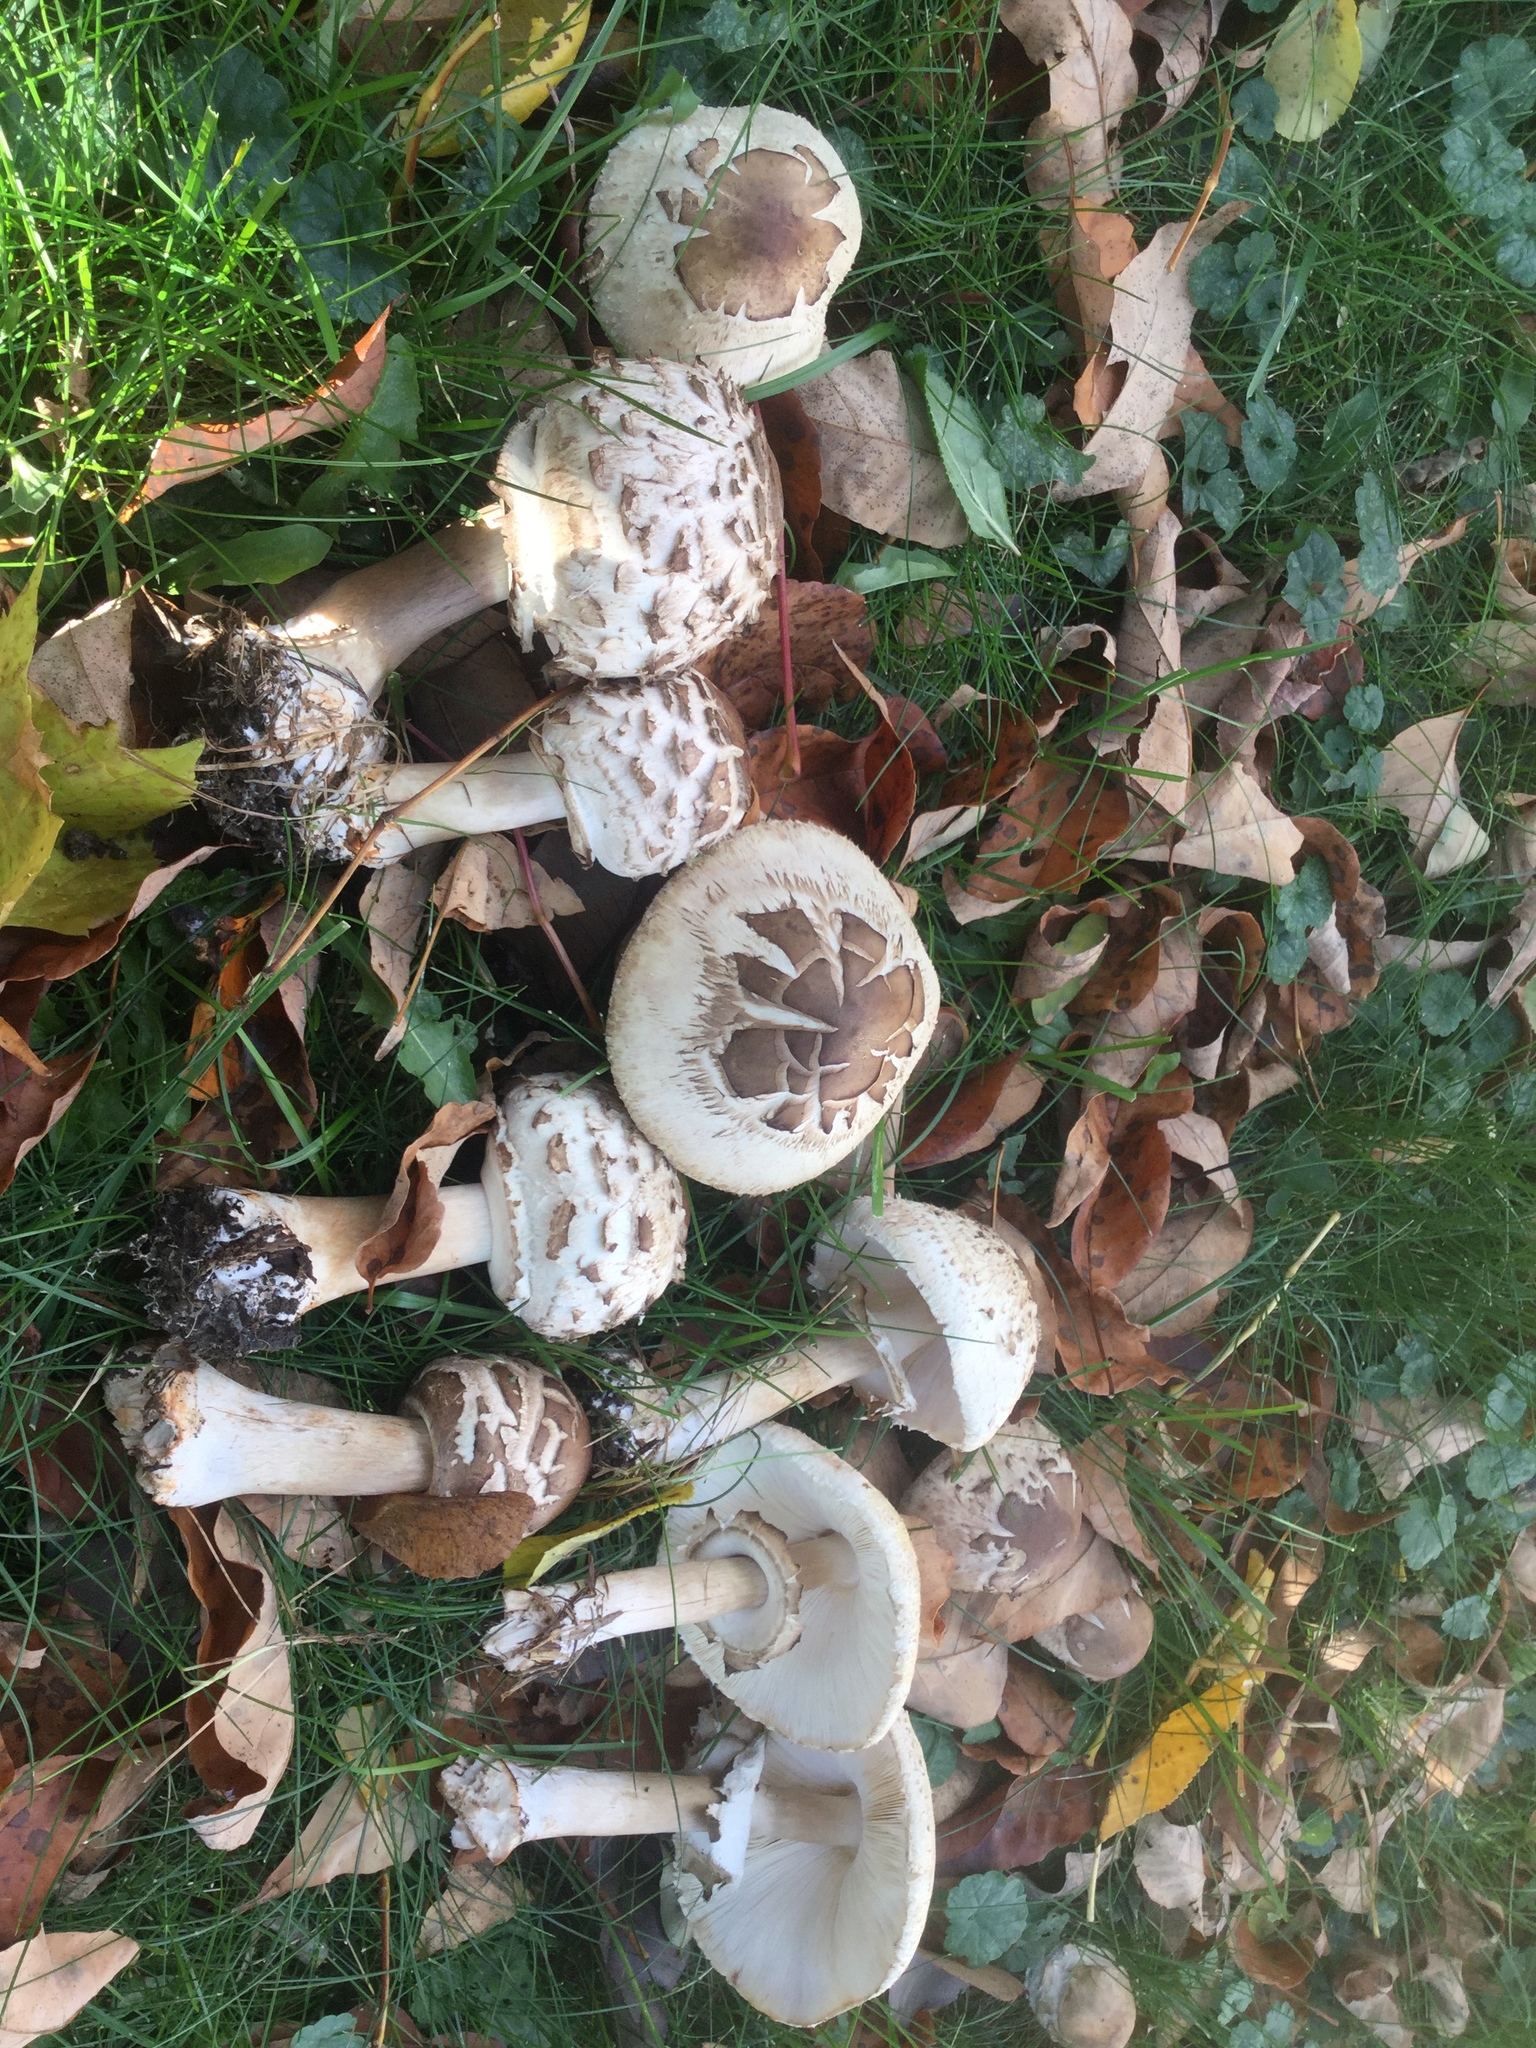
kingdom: Fungi
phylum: Basidiomycota
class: Agaricomycetes
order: Agaricales
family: Agaricaceae
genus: Chlorophyllum
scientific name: Chlorophyllum rhacodes
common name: Shaggy parasol
